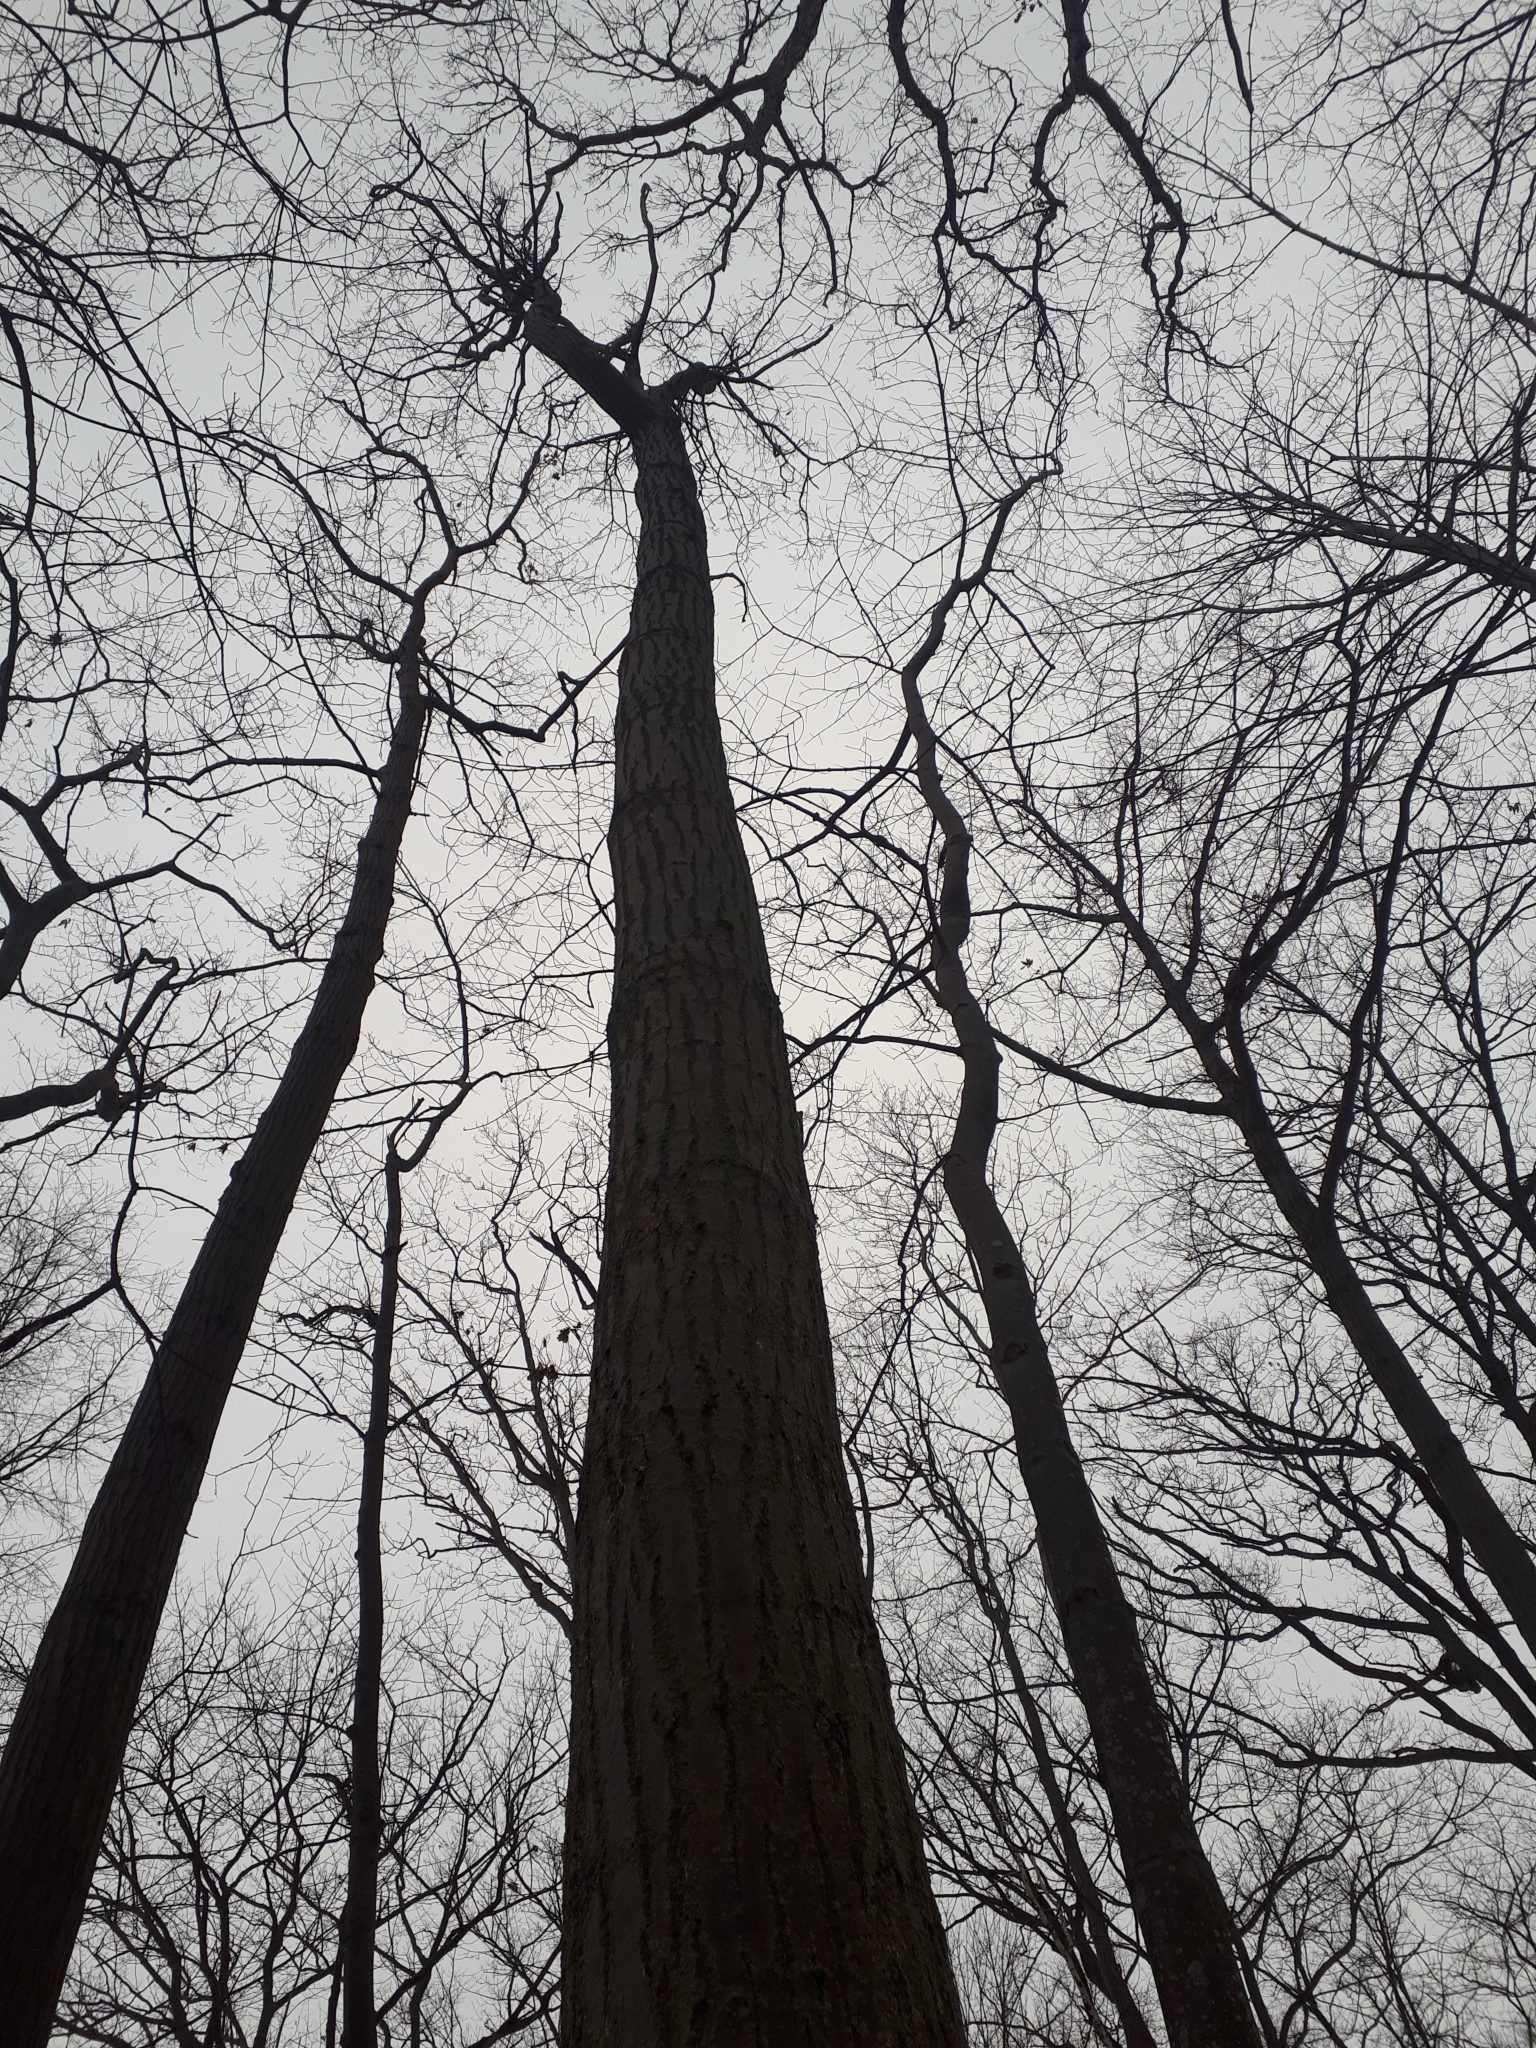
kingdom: Plantae
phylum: Tracheophyta
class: Magnoliopsida
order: Fagales
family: Fagaceae
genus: Quercus
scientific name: Quercus rubra
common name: Red oak
